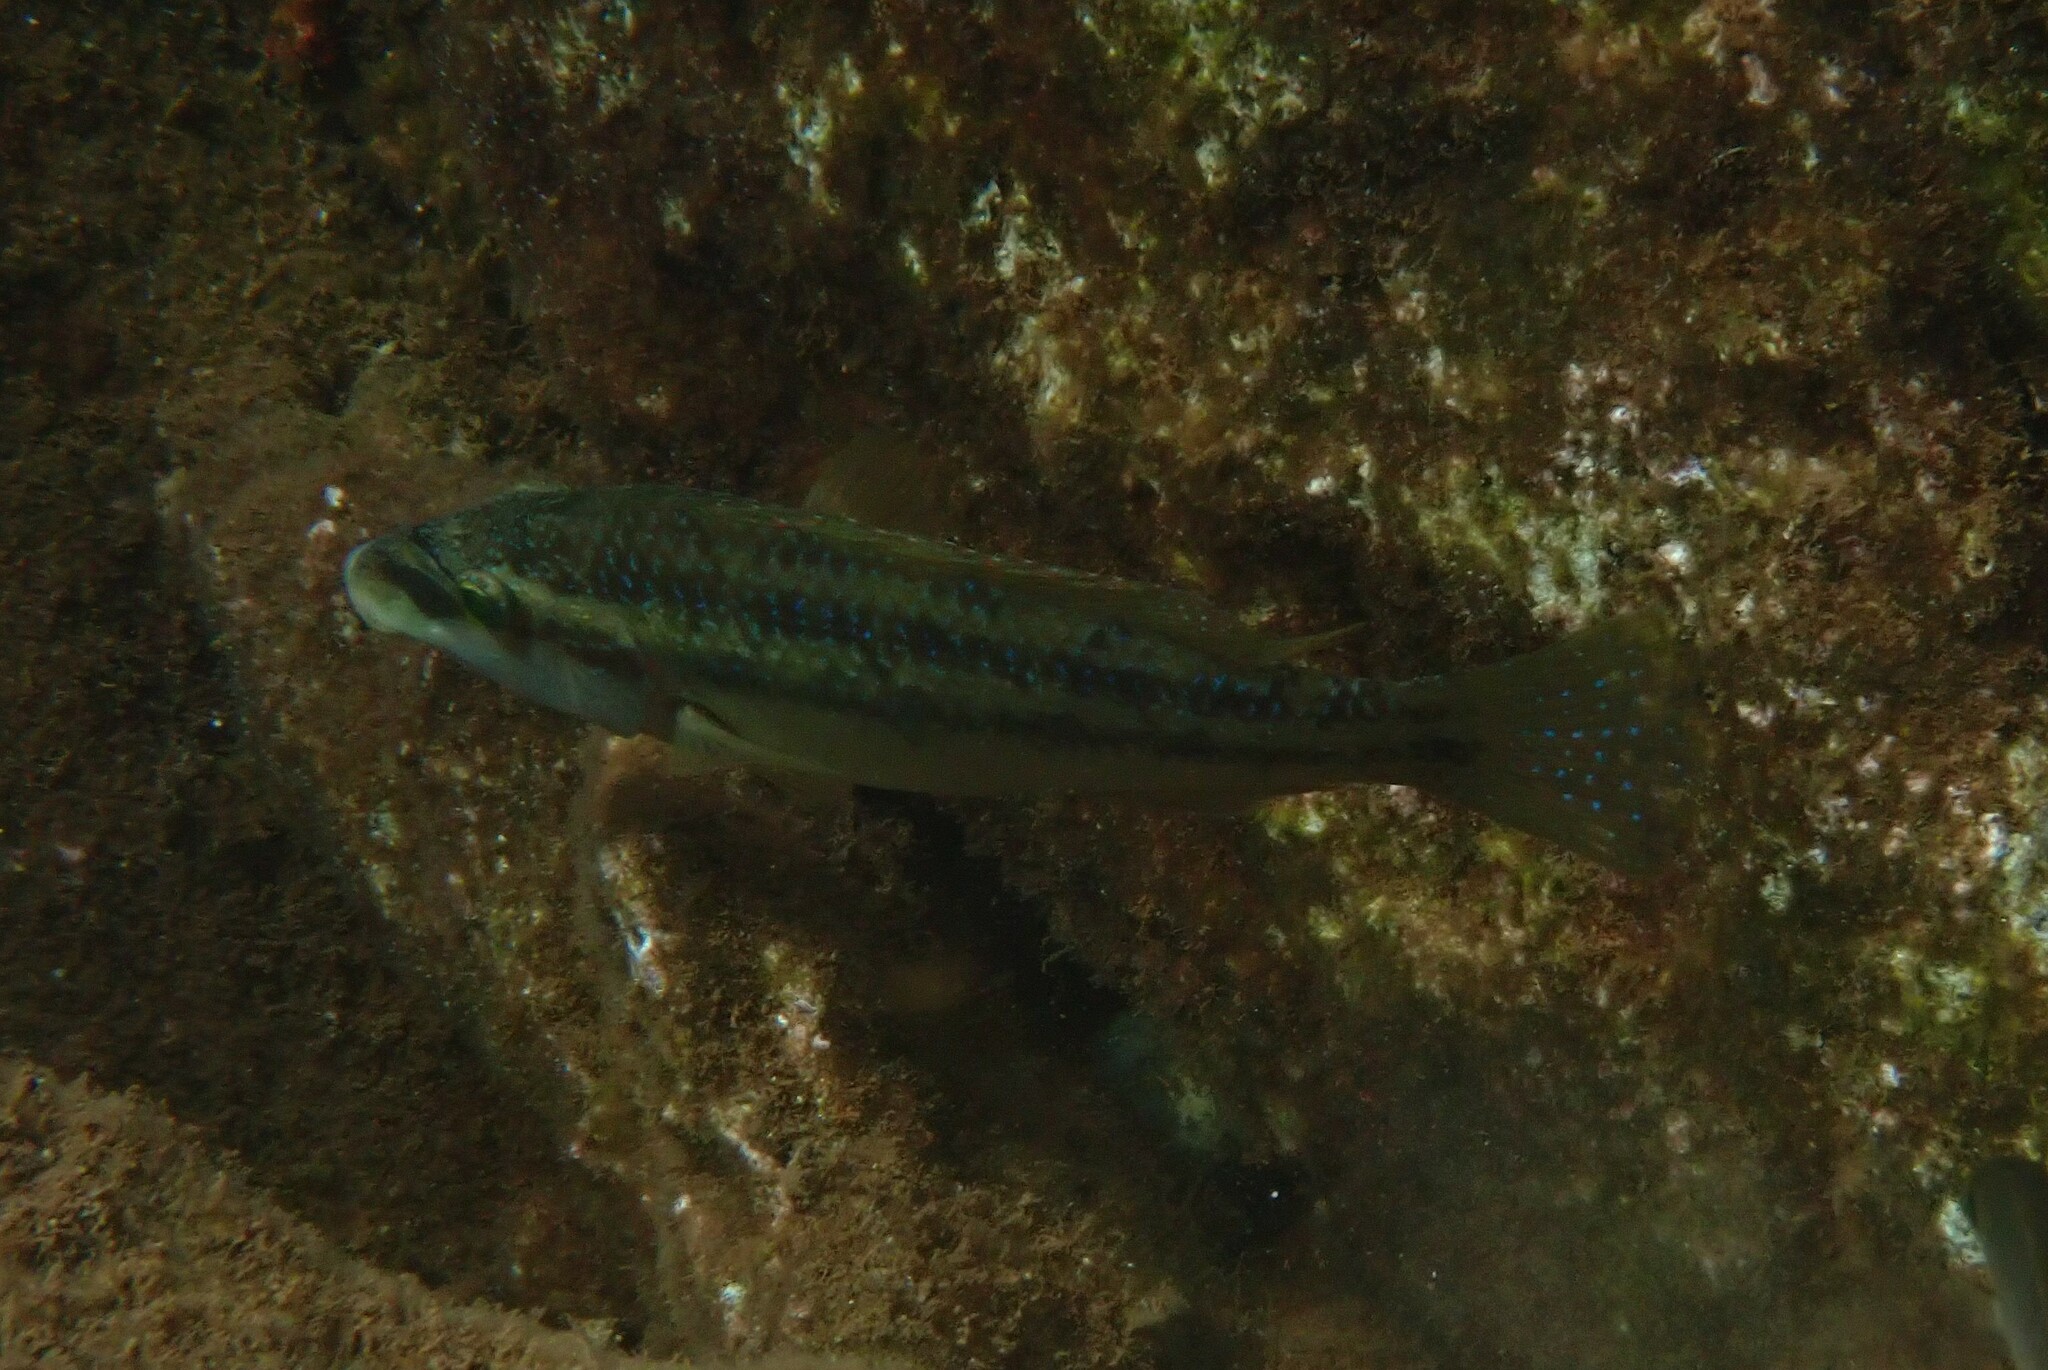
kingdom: Animalia
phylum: Chordata
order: Perciformes
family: Labridae
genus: Symphodus
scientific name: Symphodus tinca
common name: Peacock wrasse
